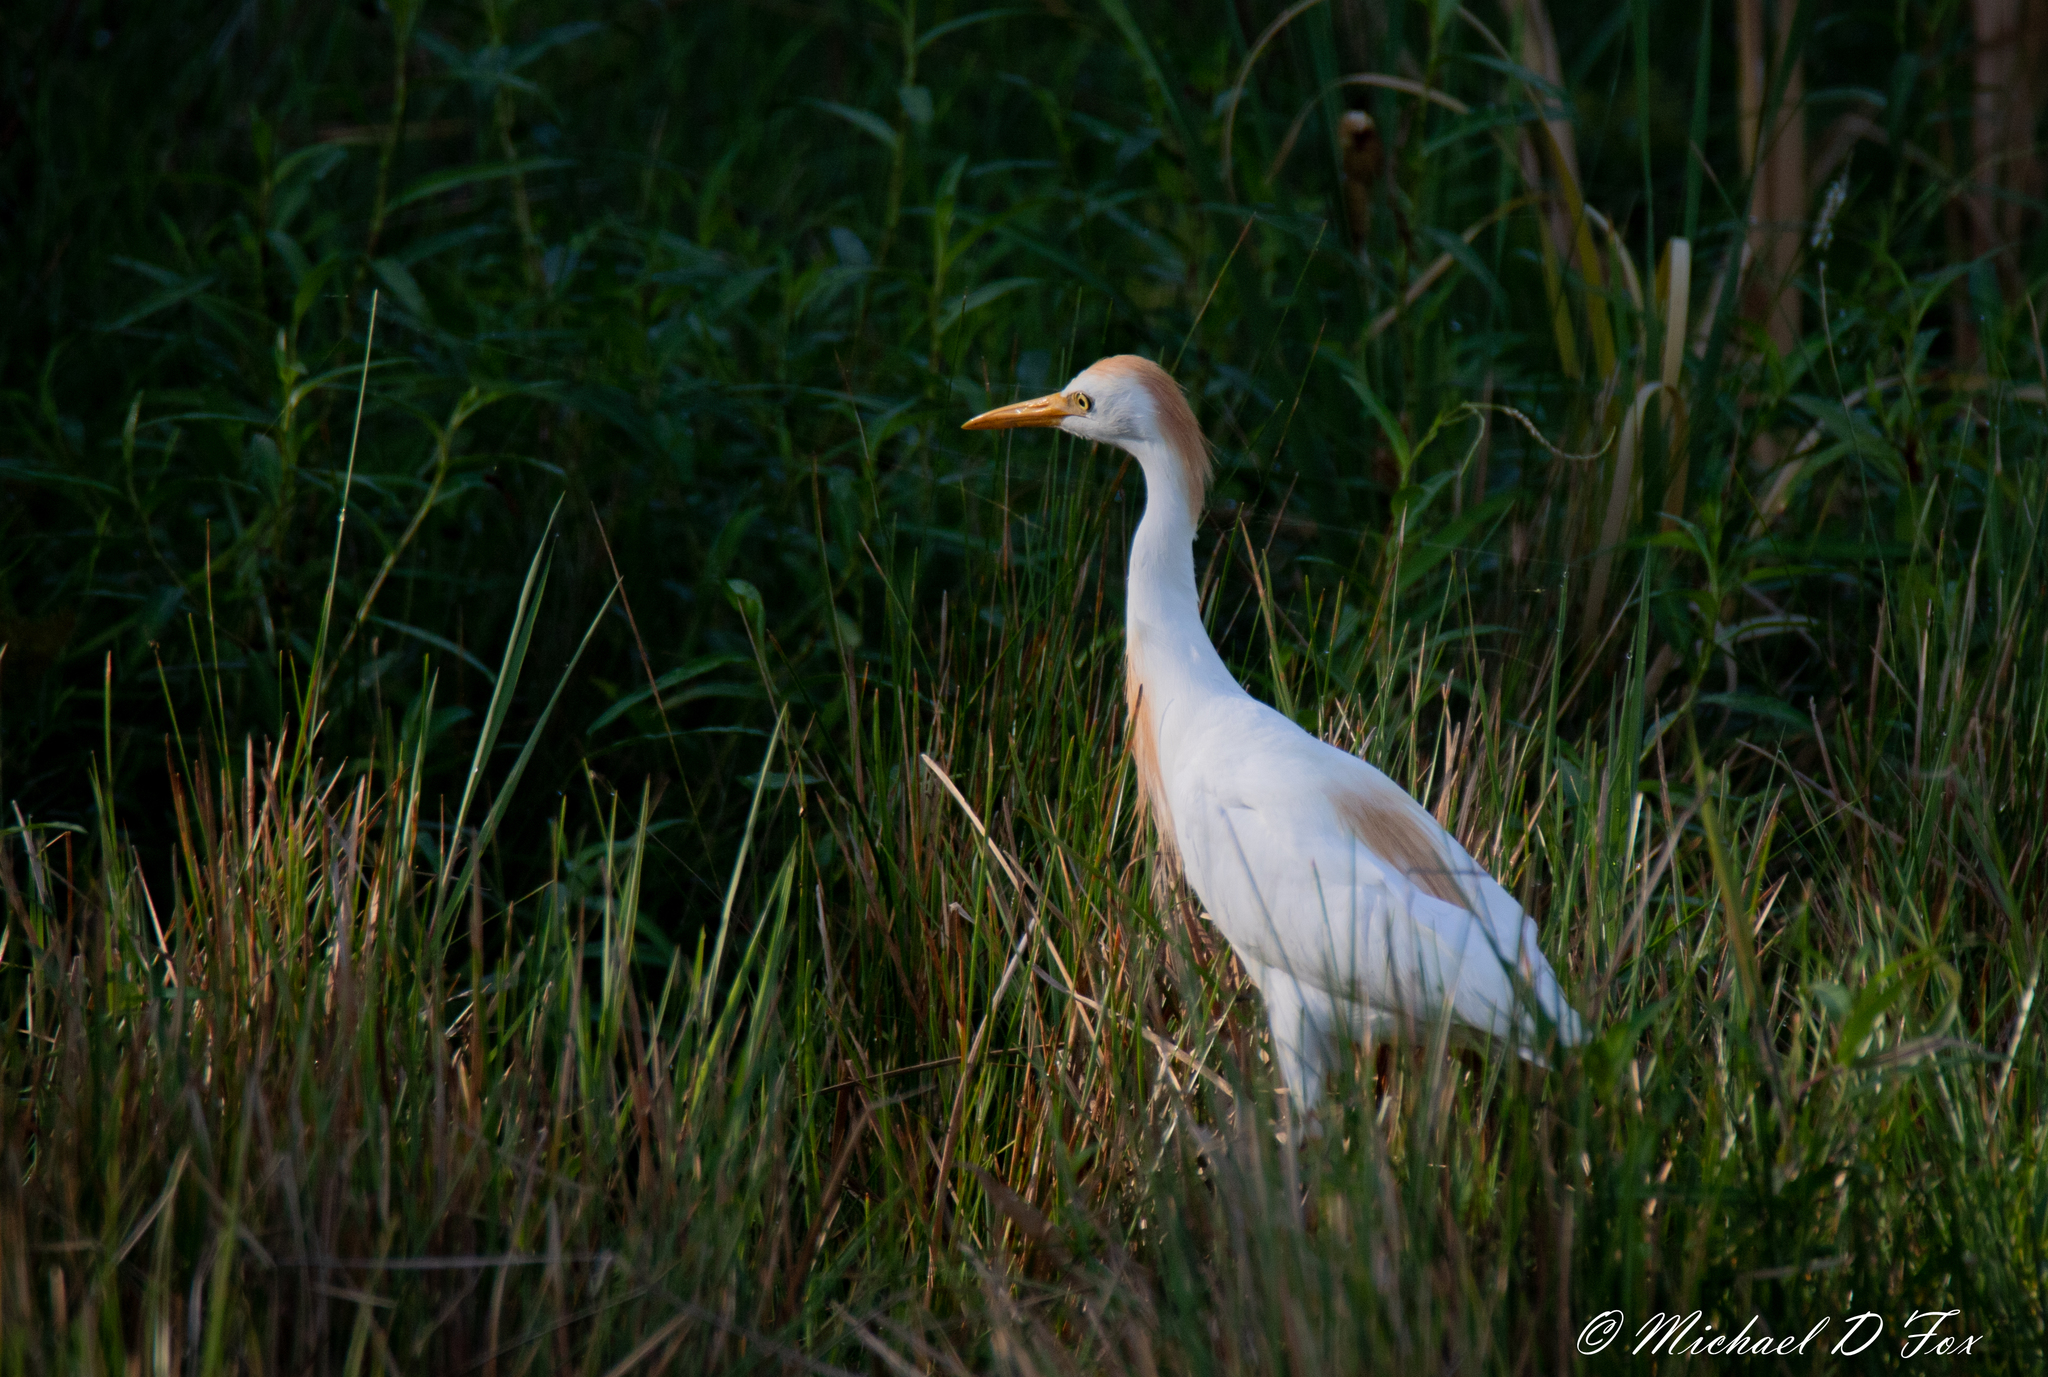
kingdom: Animalia
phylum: Chordata
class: Aves
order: Pelecaniformes
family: Ardeidae
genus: Bubulcus
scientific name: Bubulcus ibis
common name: Cattle egret
